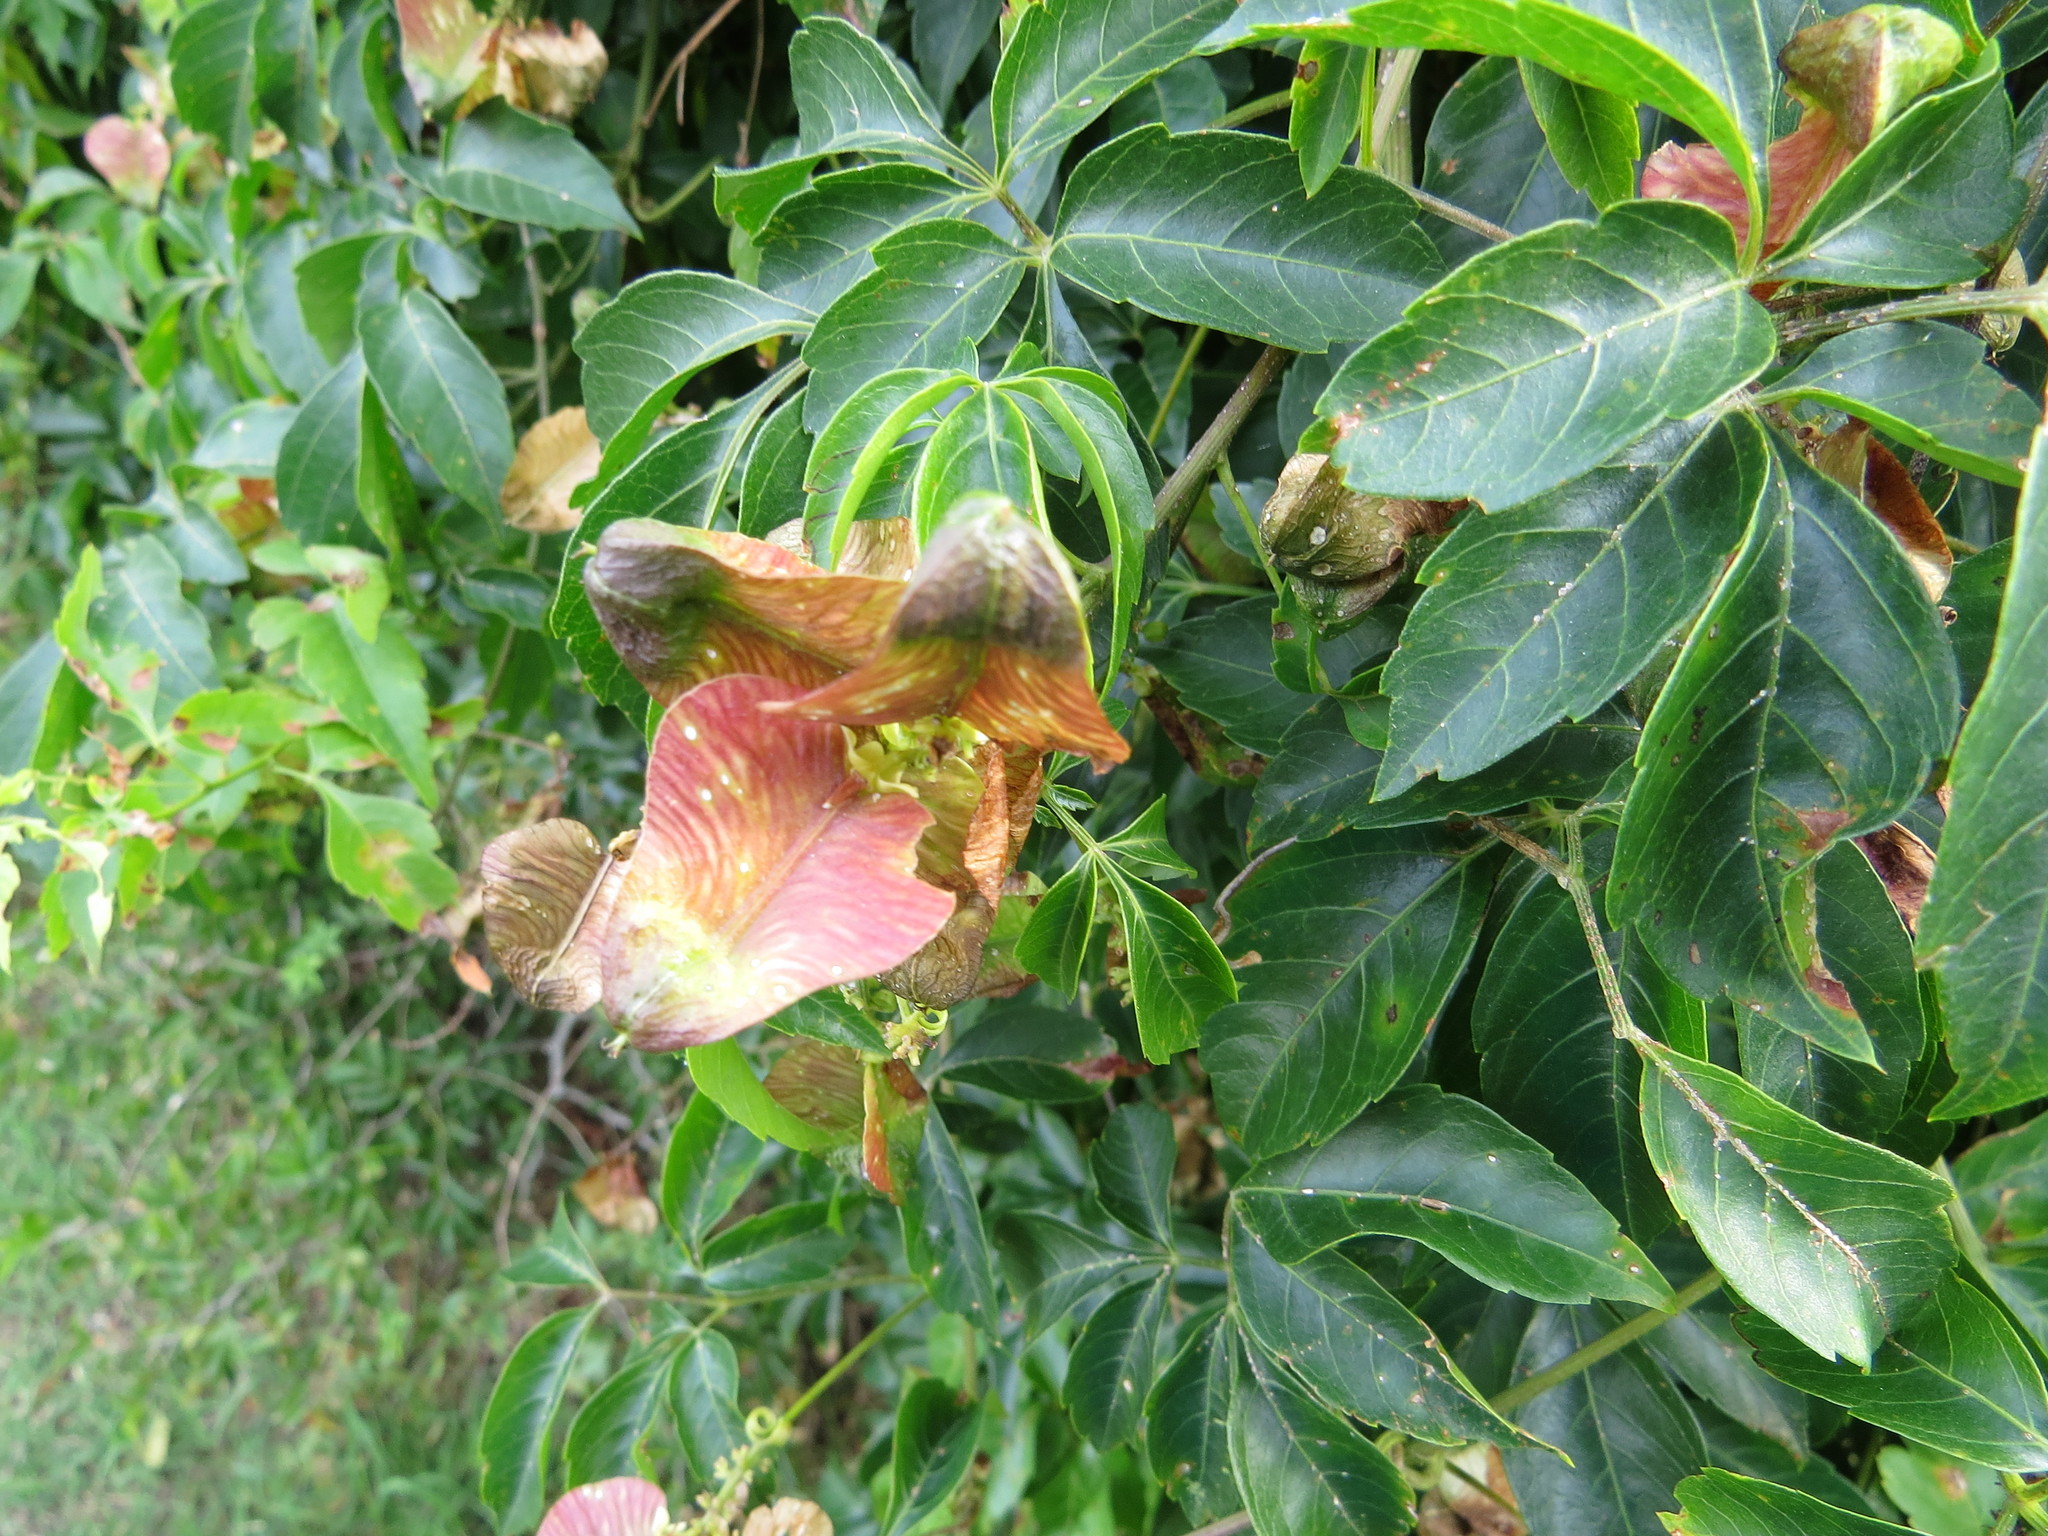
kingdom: Plantae
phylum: Tracheophyta
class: Magnoliopsida
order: Sapindales
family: Sapindaceae
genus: Serjania
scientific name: Serjania meridionalis
